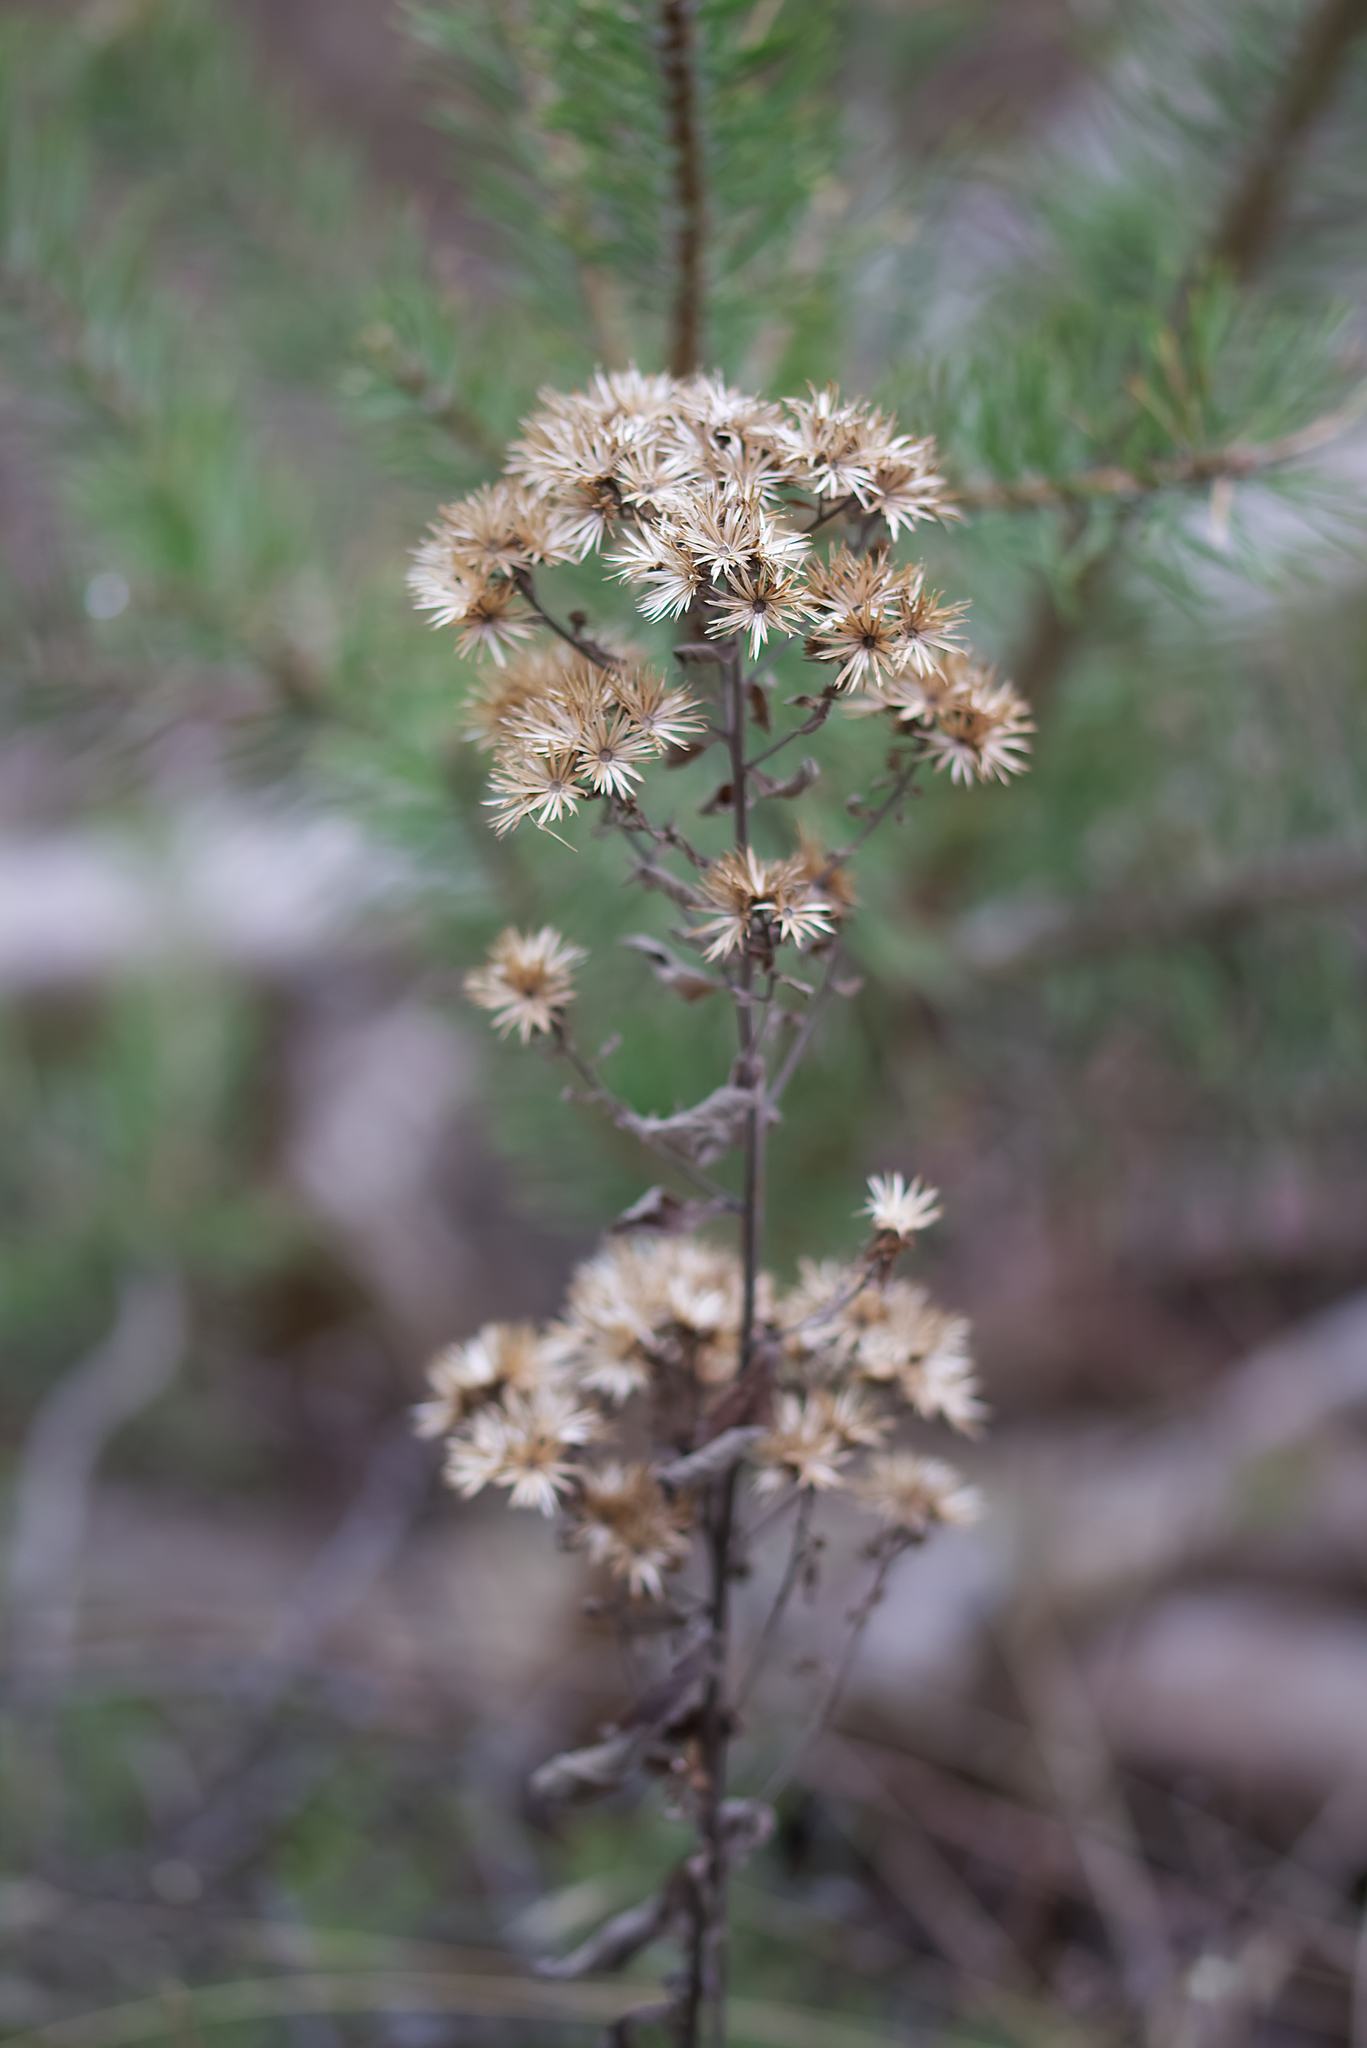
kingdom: Plantae
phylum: Tracheophyta
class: Magnoliopsida
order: Asterales
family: Asteraceae
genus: Pentanema
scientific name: Pentanema squarrosum
